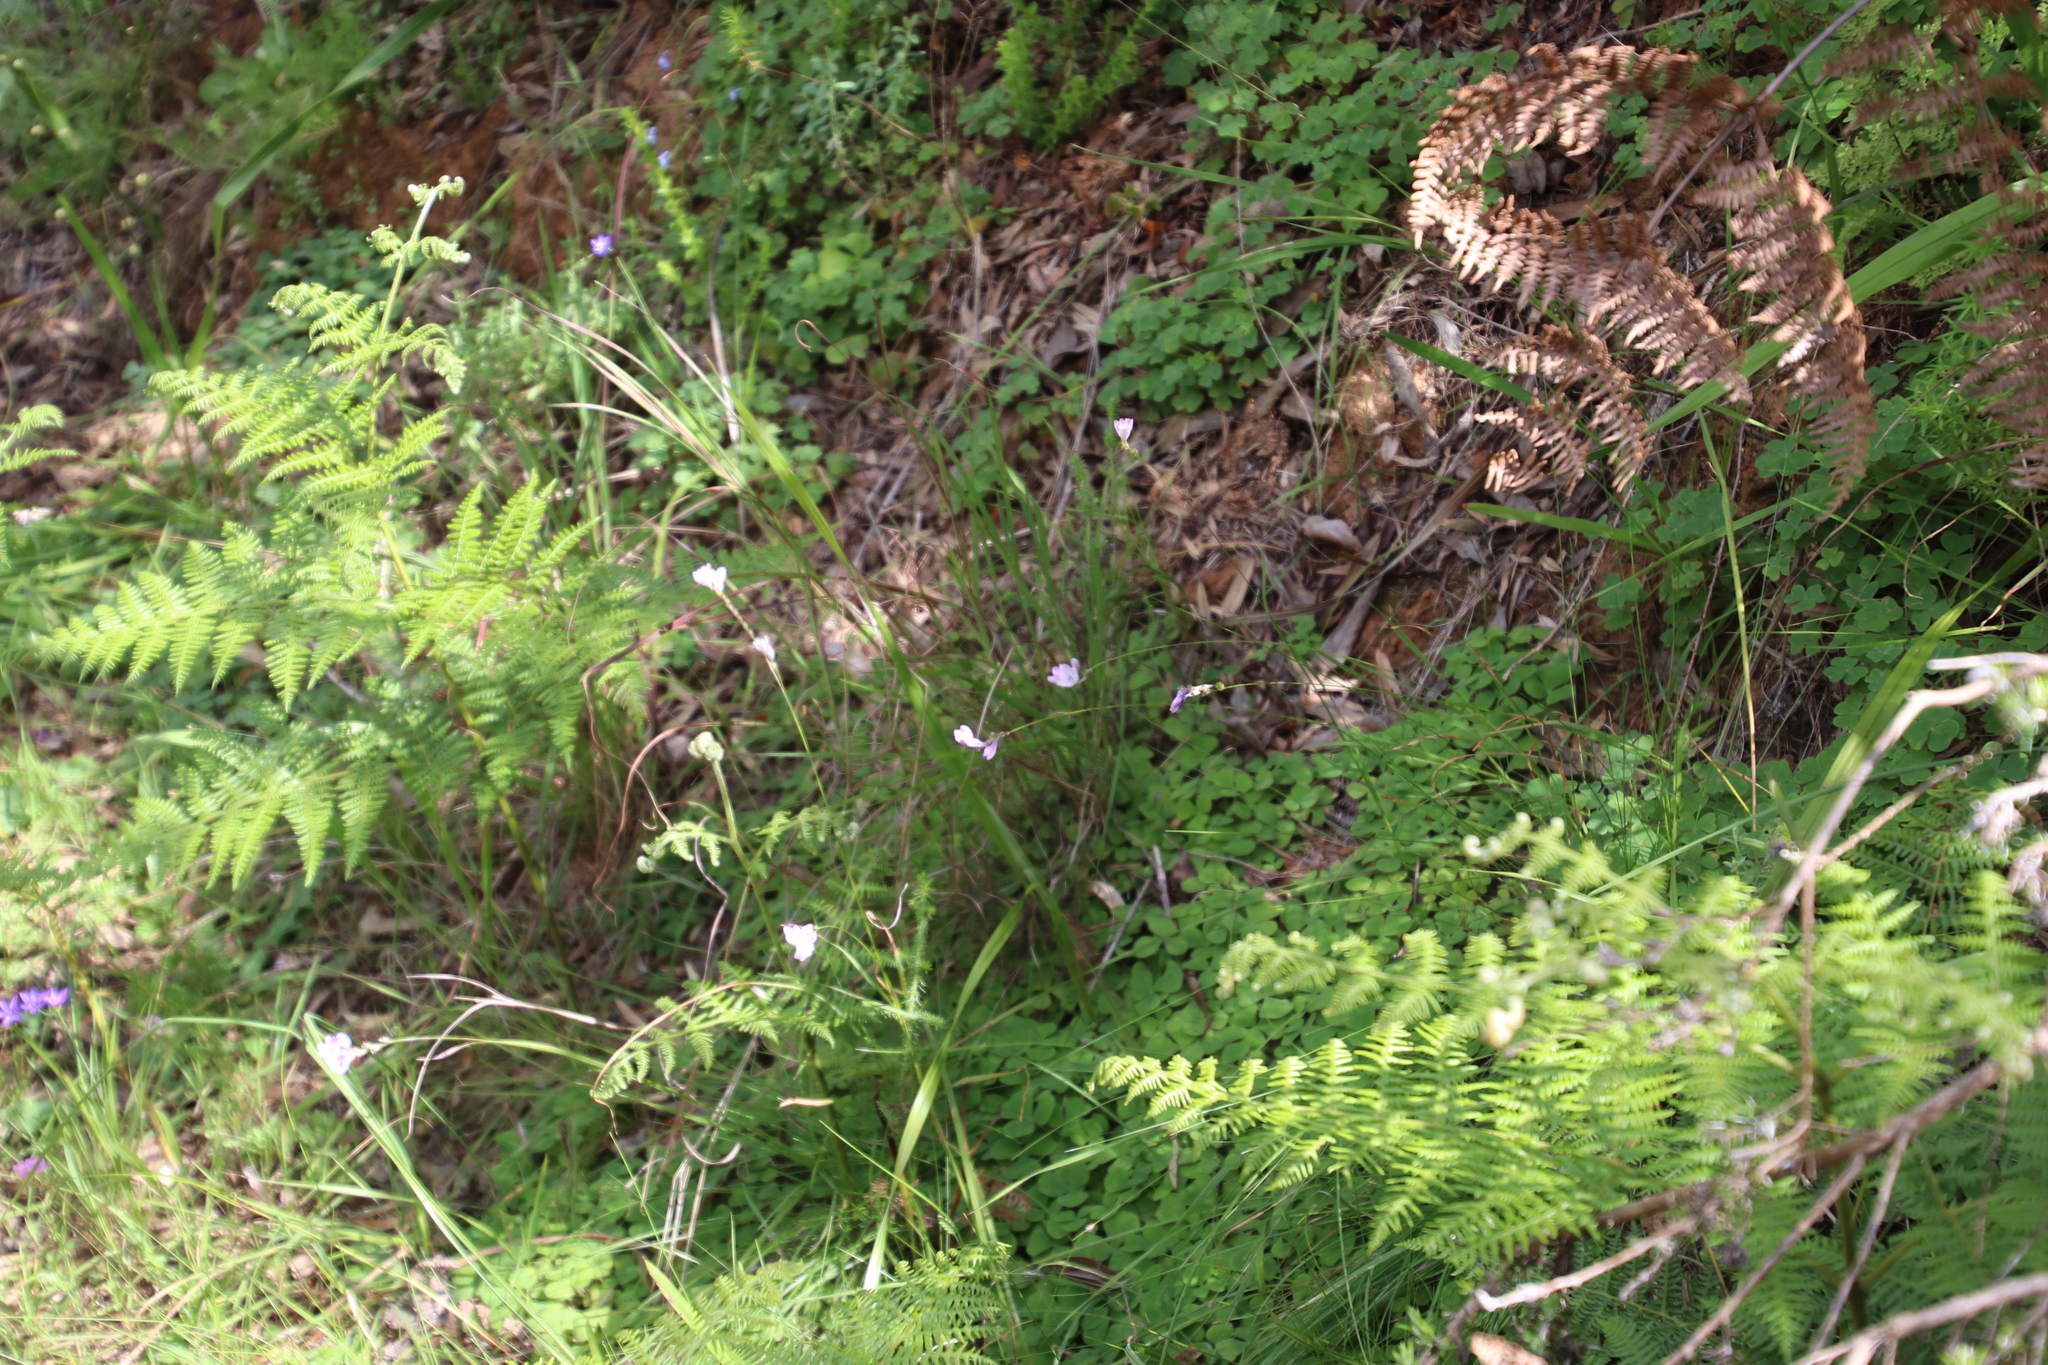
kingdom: Plantae
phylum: Tracheophyta
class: Liliopsida
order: Asparagales
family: Iridaceae
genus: Ixia
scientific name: Ixia flexuosa
